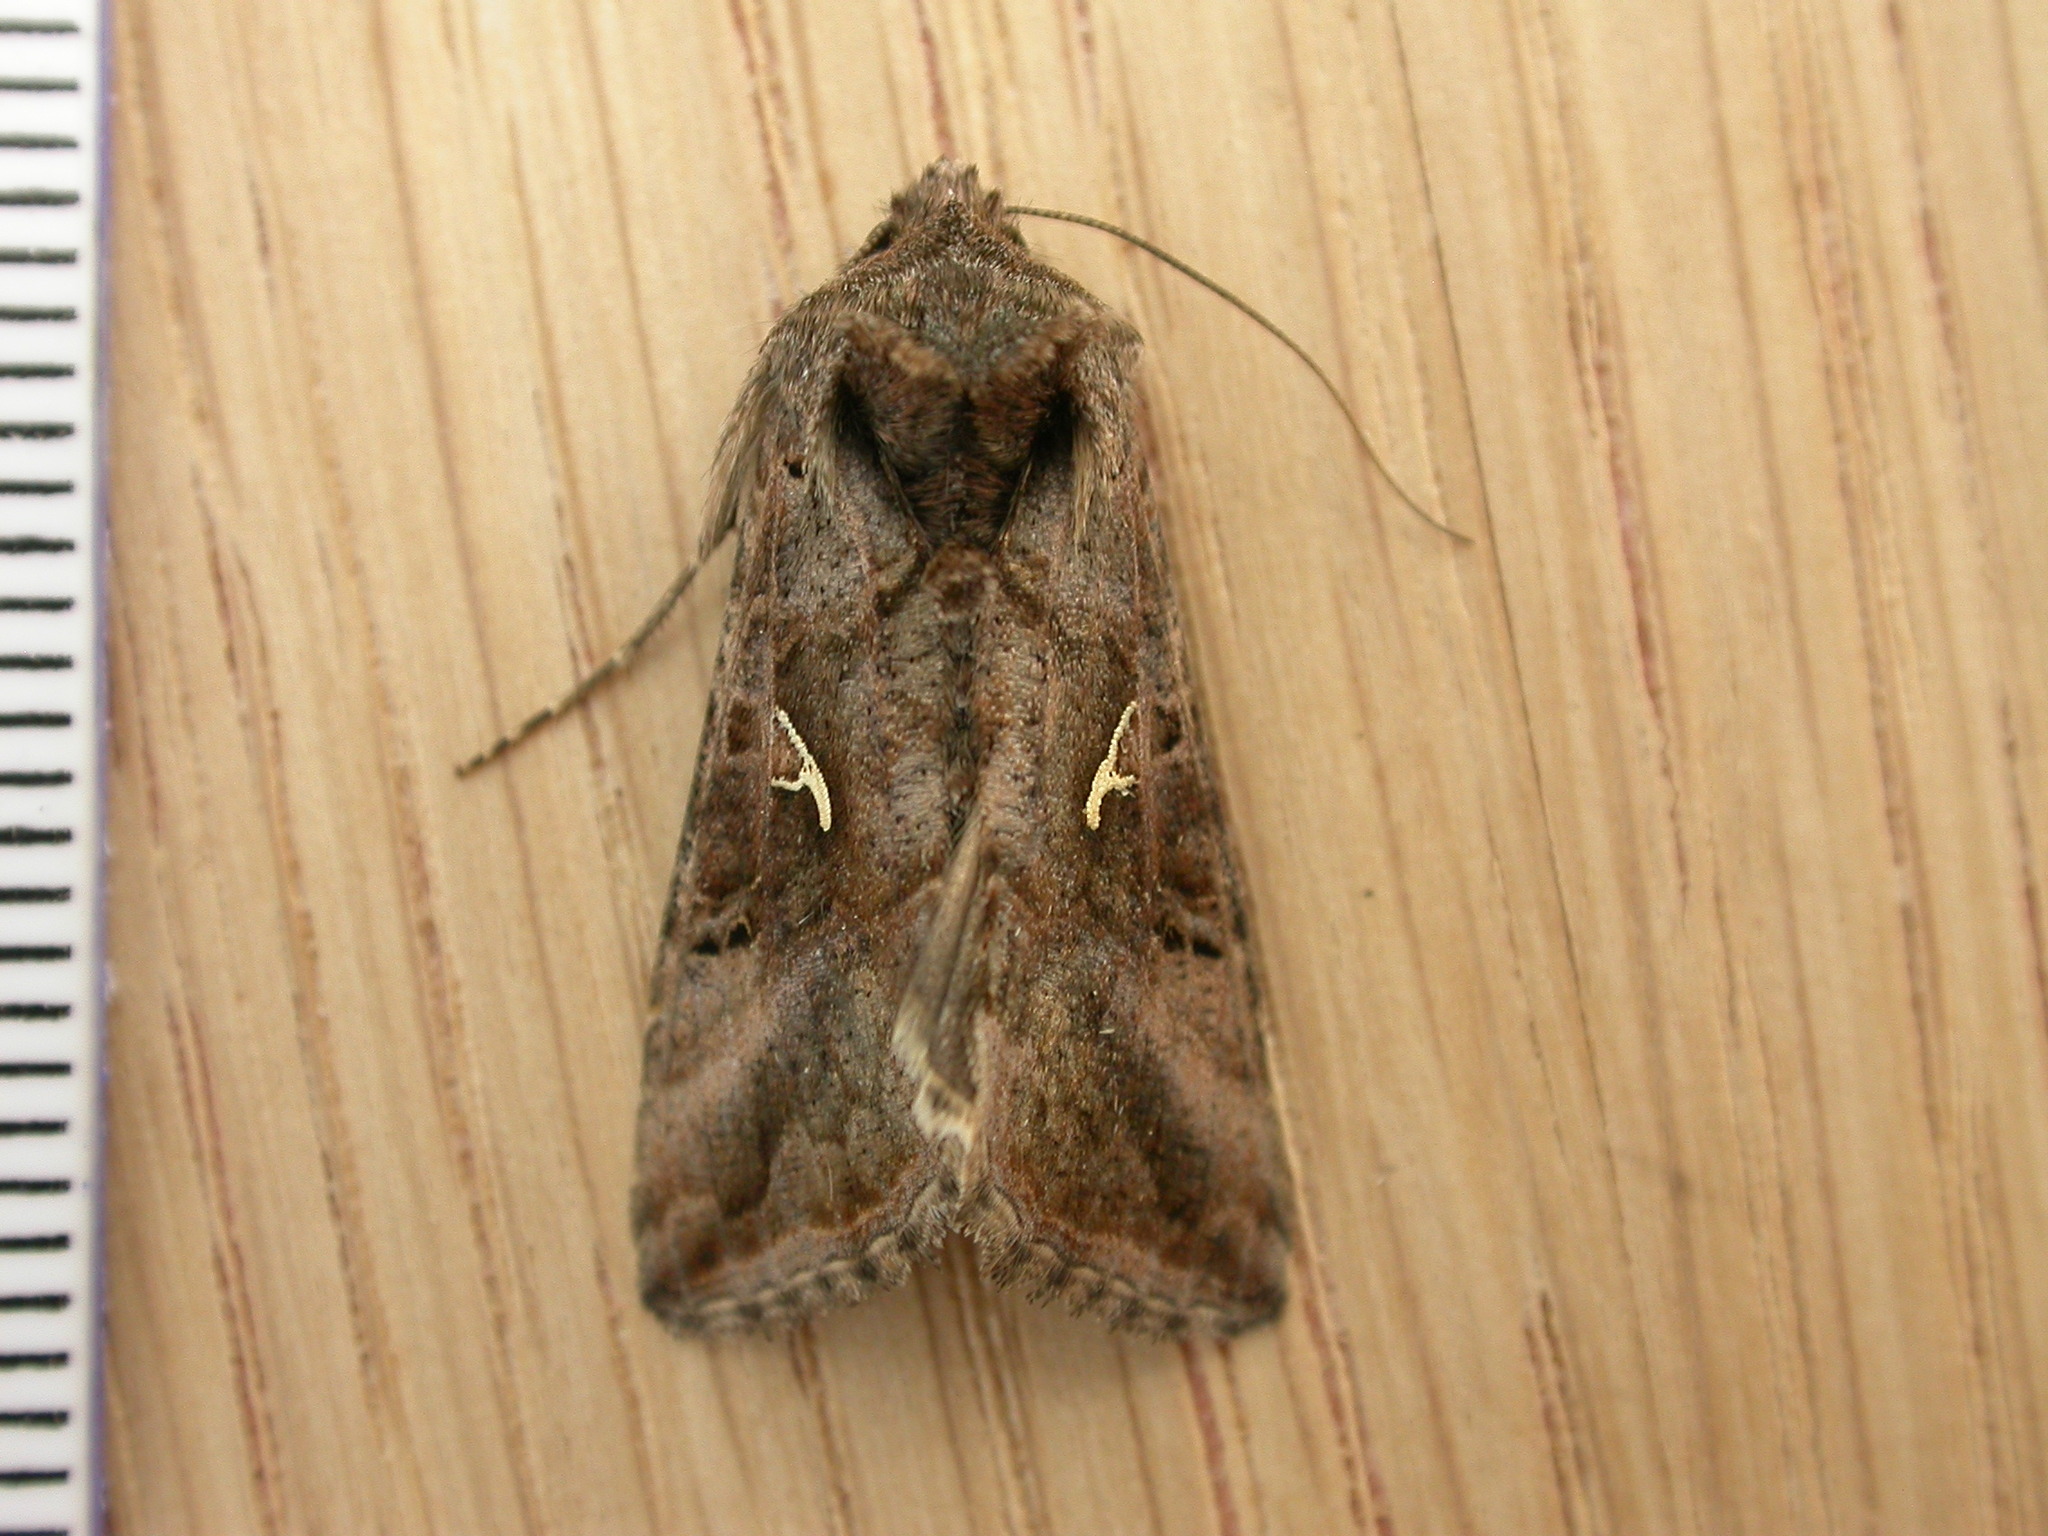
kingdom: Animalia
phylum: Arthropoda
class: Insecta
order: Lepidoptera
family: Noctuidae
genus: Autographa
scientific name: Autographa gamma
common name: Silver y
